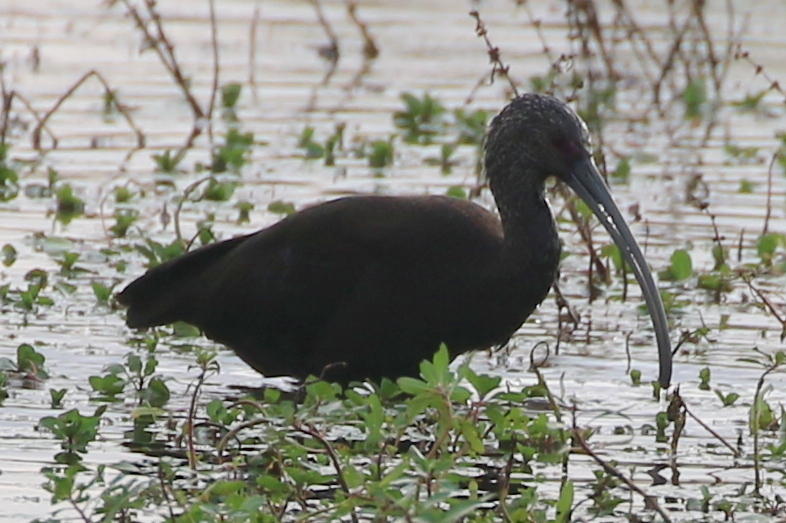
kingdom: Animalia
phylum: Chordata
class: Aves
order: Pelecaniformes
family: Threskiornithidae
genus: Plegadis
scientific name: Plegadis chihi
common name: White-faced ibis
